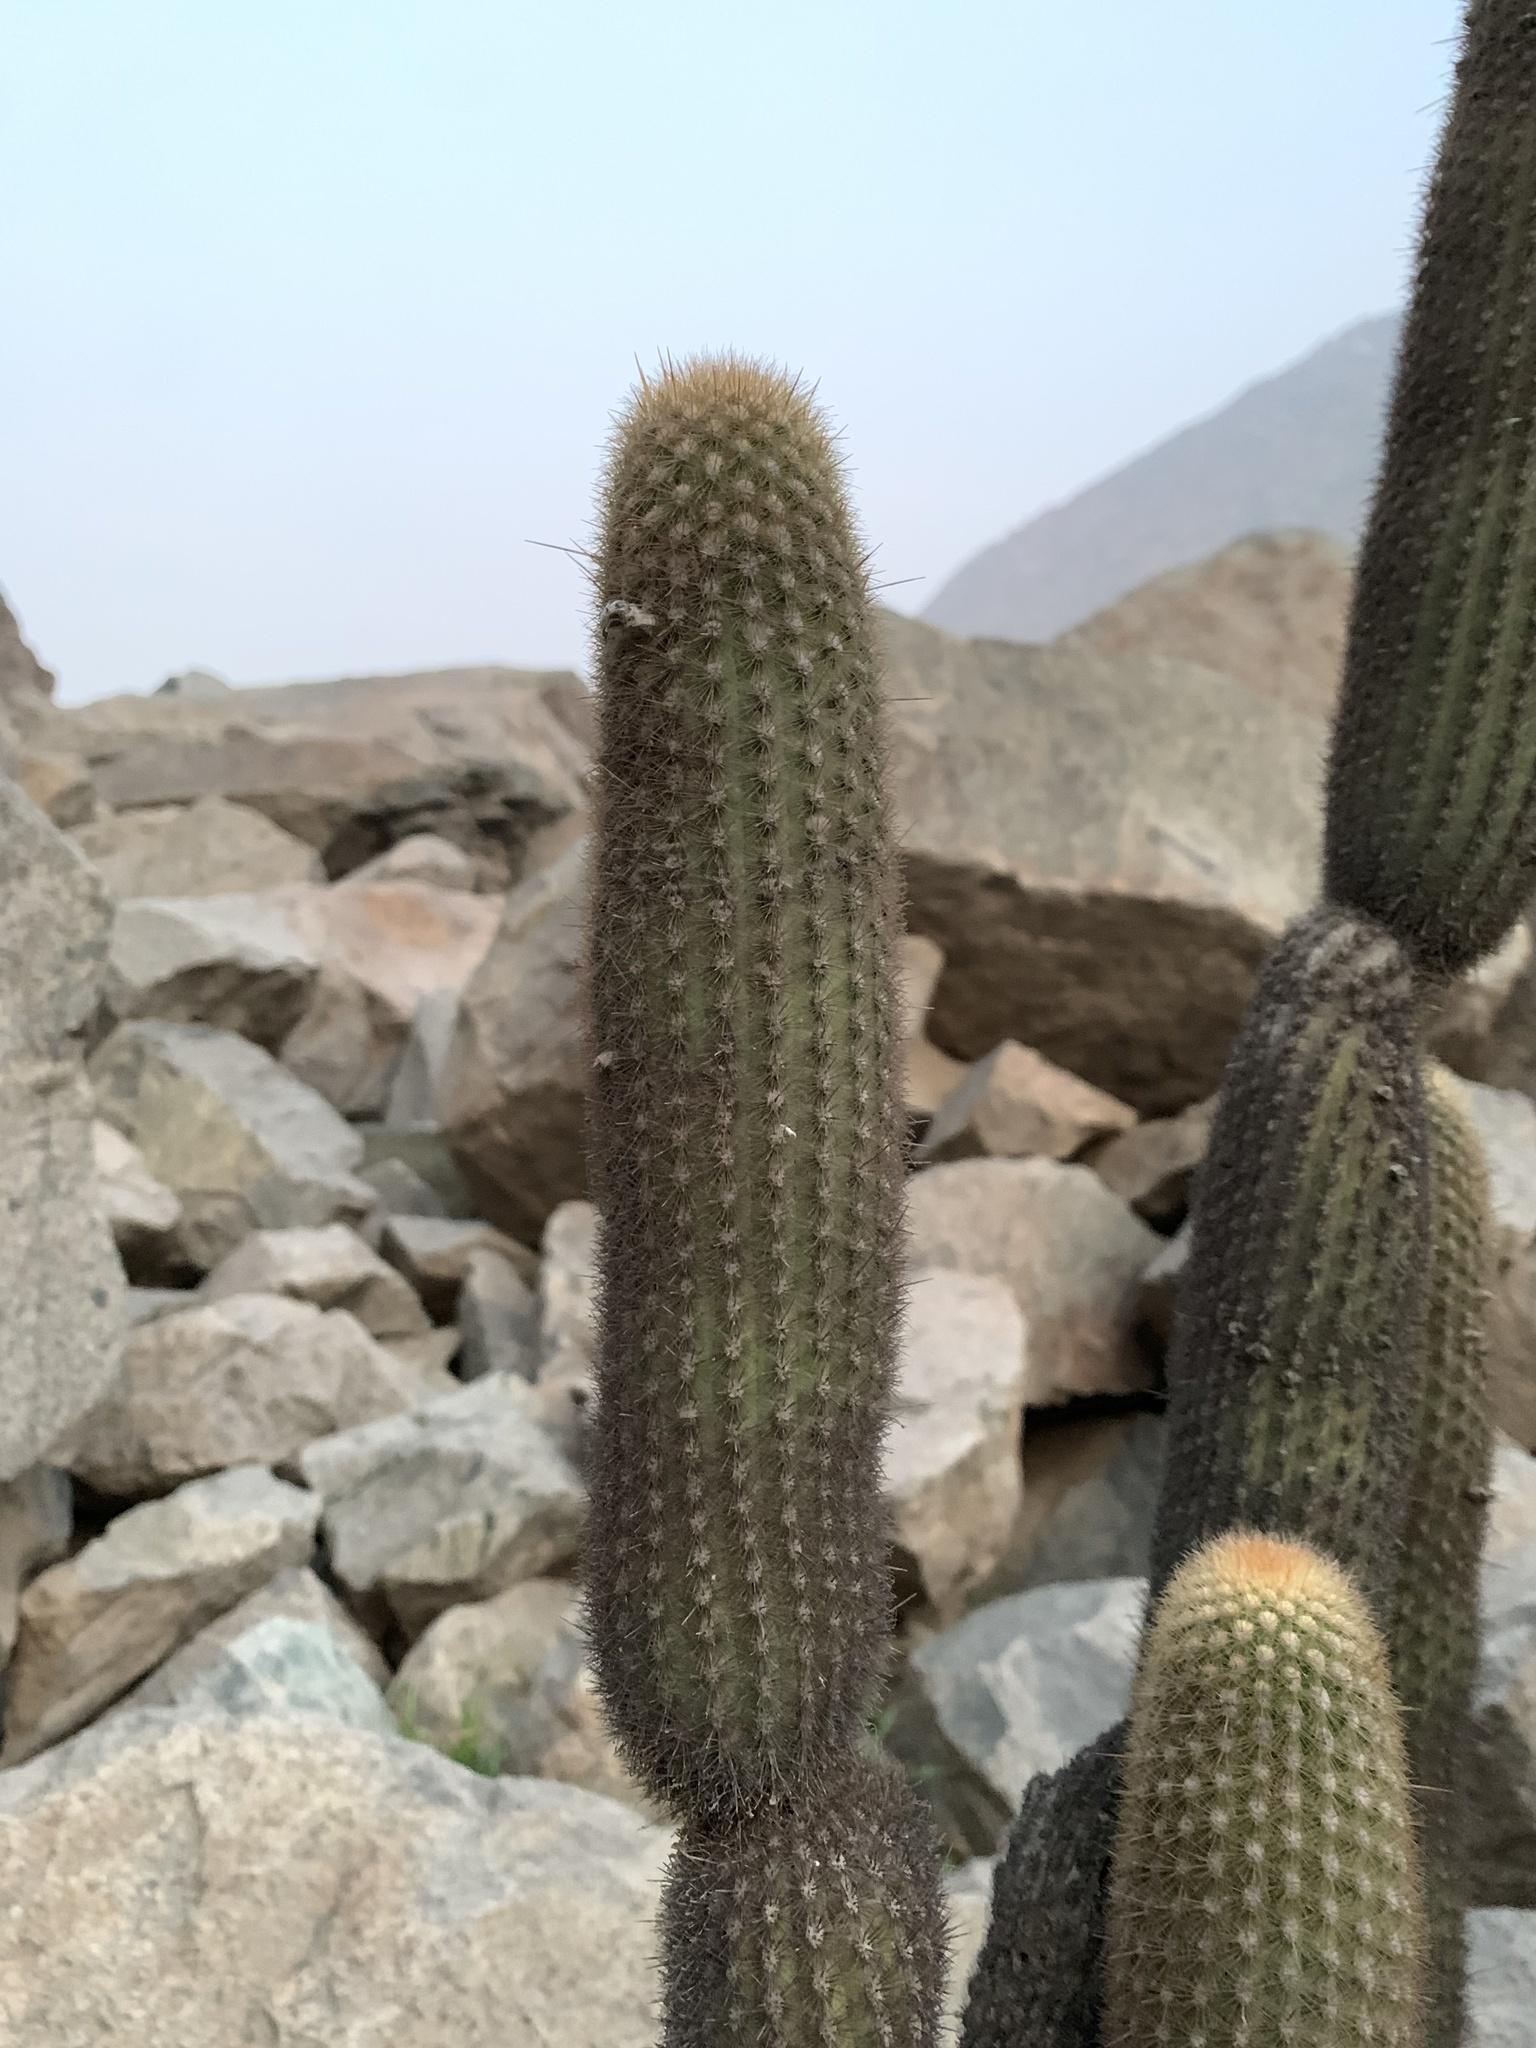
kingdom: Plantae
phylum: Tracheophyta
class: Magnoliopsida
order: Caryophyllales
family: Cactaceae
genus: Haageocereus
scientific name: Haageocereus pseudomelanostele
